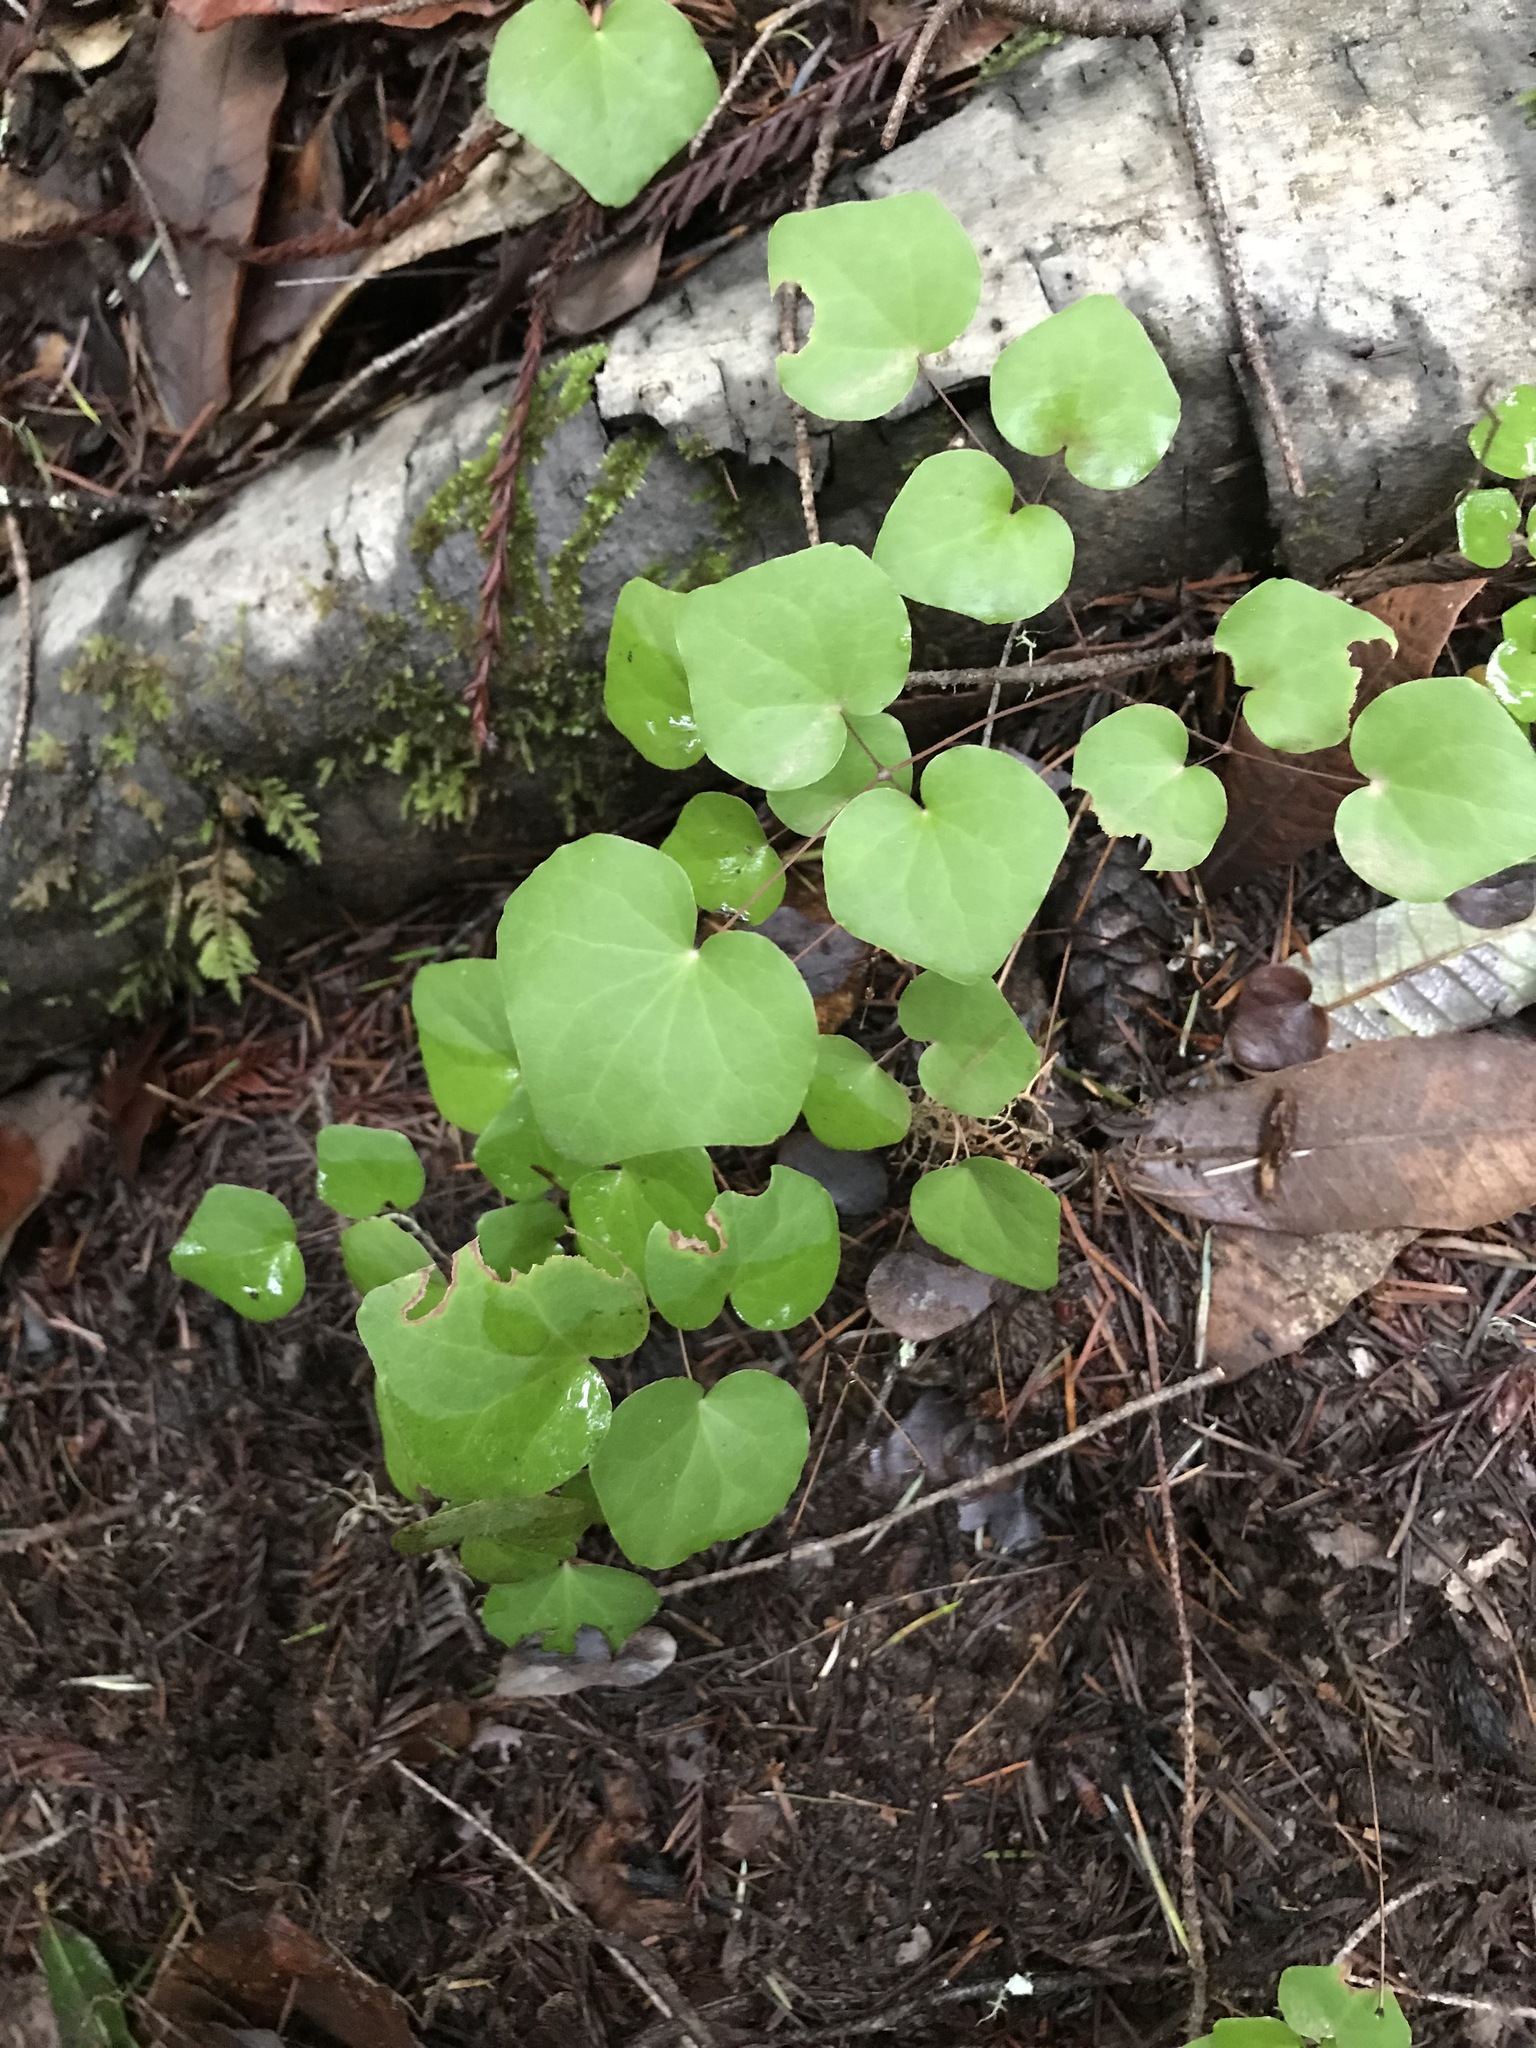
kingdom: Plantae
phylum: Tracheophyta
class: Magnoliopsida
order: Ranunculales
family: Berberidaceae
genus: Vancouveria
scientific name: Vancouveria planipetala
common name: Redwood-ivy
